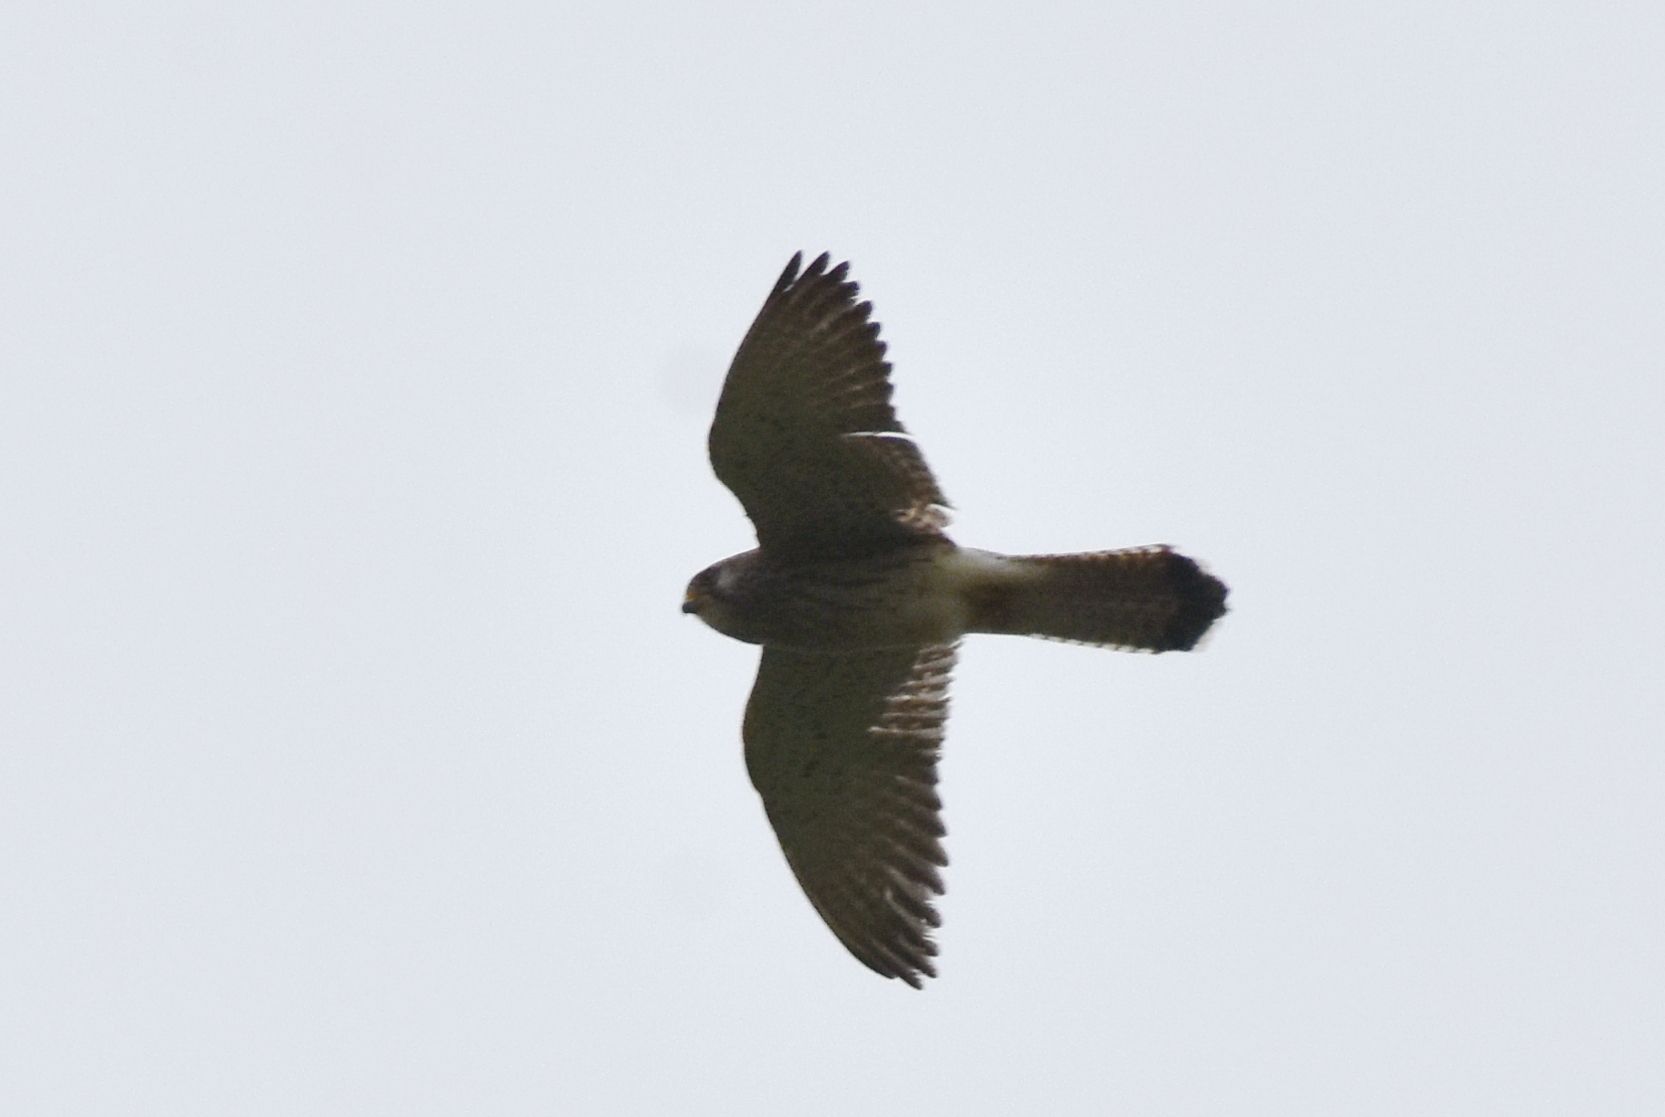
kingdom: Animalia
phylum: Chordata
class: Aves
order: Falconiformes
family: Falconidae
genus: Falco
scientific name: Falco tinnunculus
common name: Common kestrel
